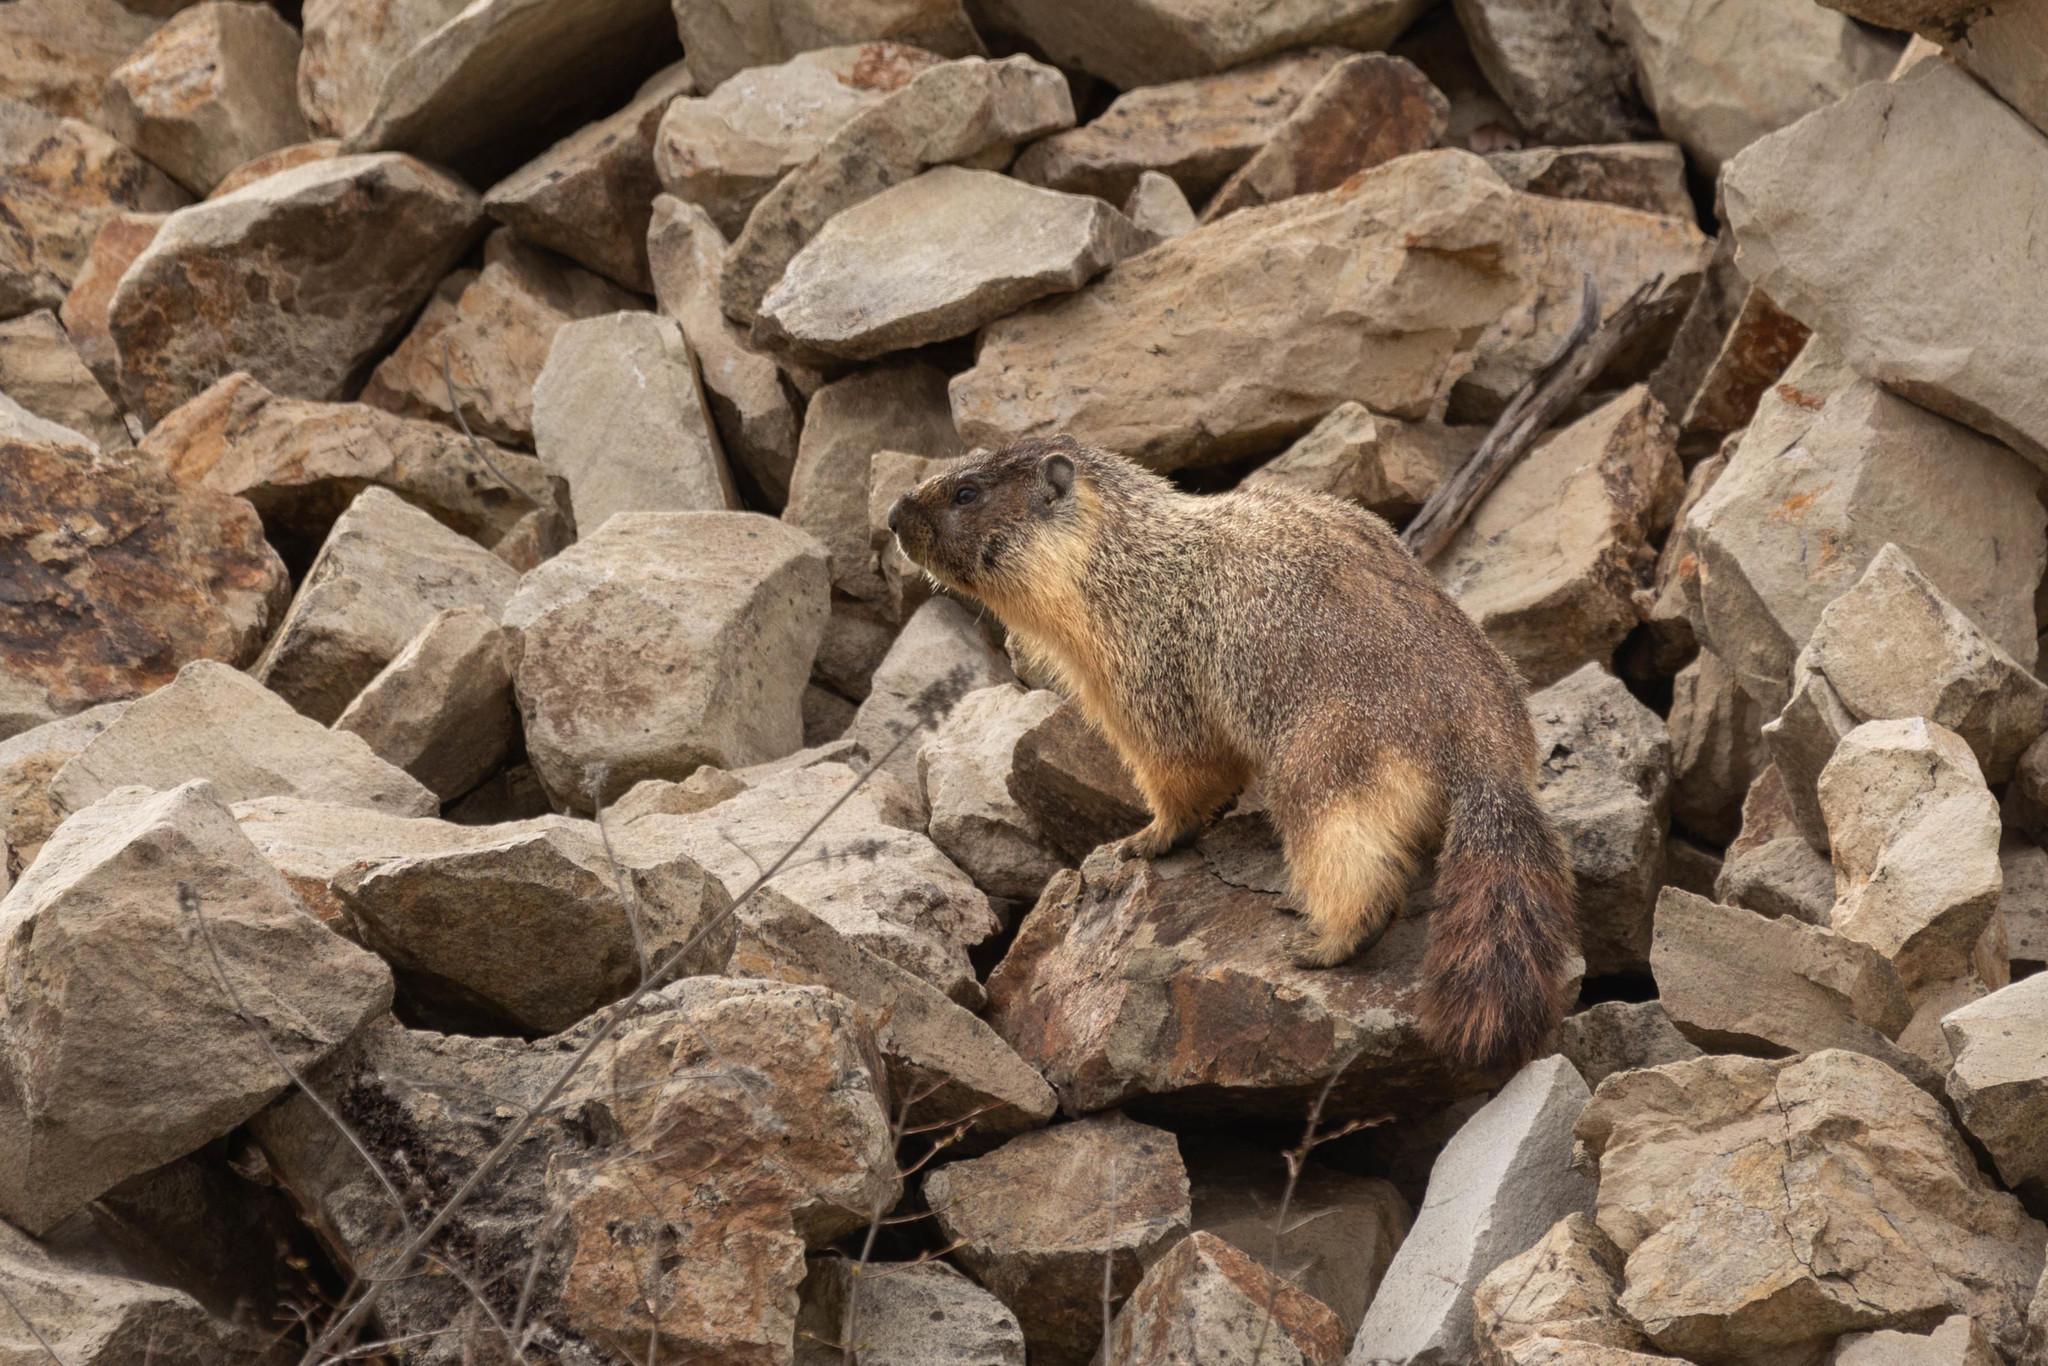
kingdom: Animalia
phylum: Chordata
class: Mammalia
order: Rodentia
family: Sciuridae
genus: Marmota
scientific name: Marmota flaviventris
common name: Yellow-bellied marmot
